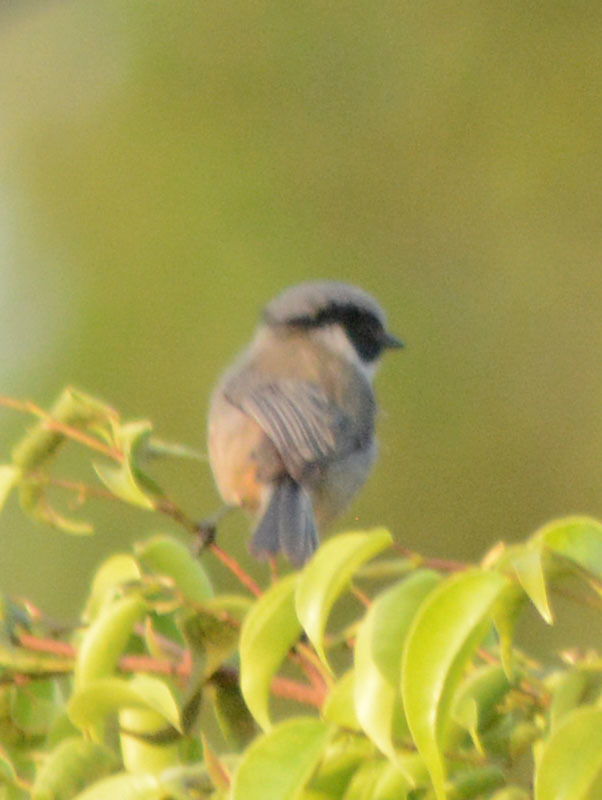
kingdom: Animalia
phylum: Chordata
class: Aves
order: Passeriformes
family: Aegithalidae
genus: Psaltriparus
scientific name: Psaltriparus minimus
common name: American bushtit
